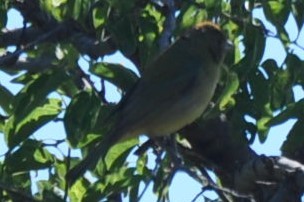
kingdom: Animalia
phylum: Chordata
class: Aves
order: Passeriformes
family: Cardinalidae
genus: Passerina
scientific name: Passerina ciris
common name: Painted bunting
